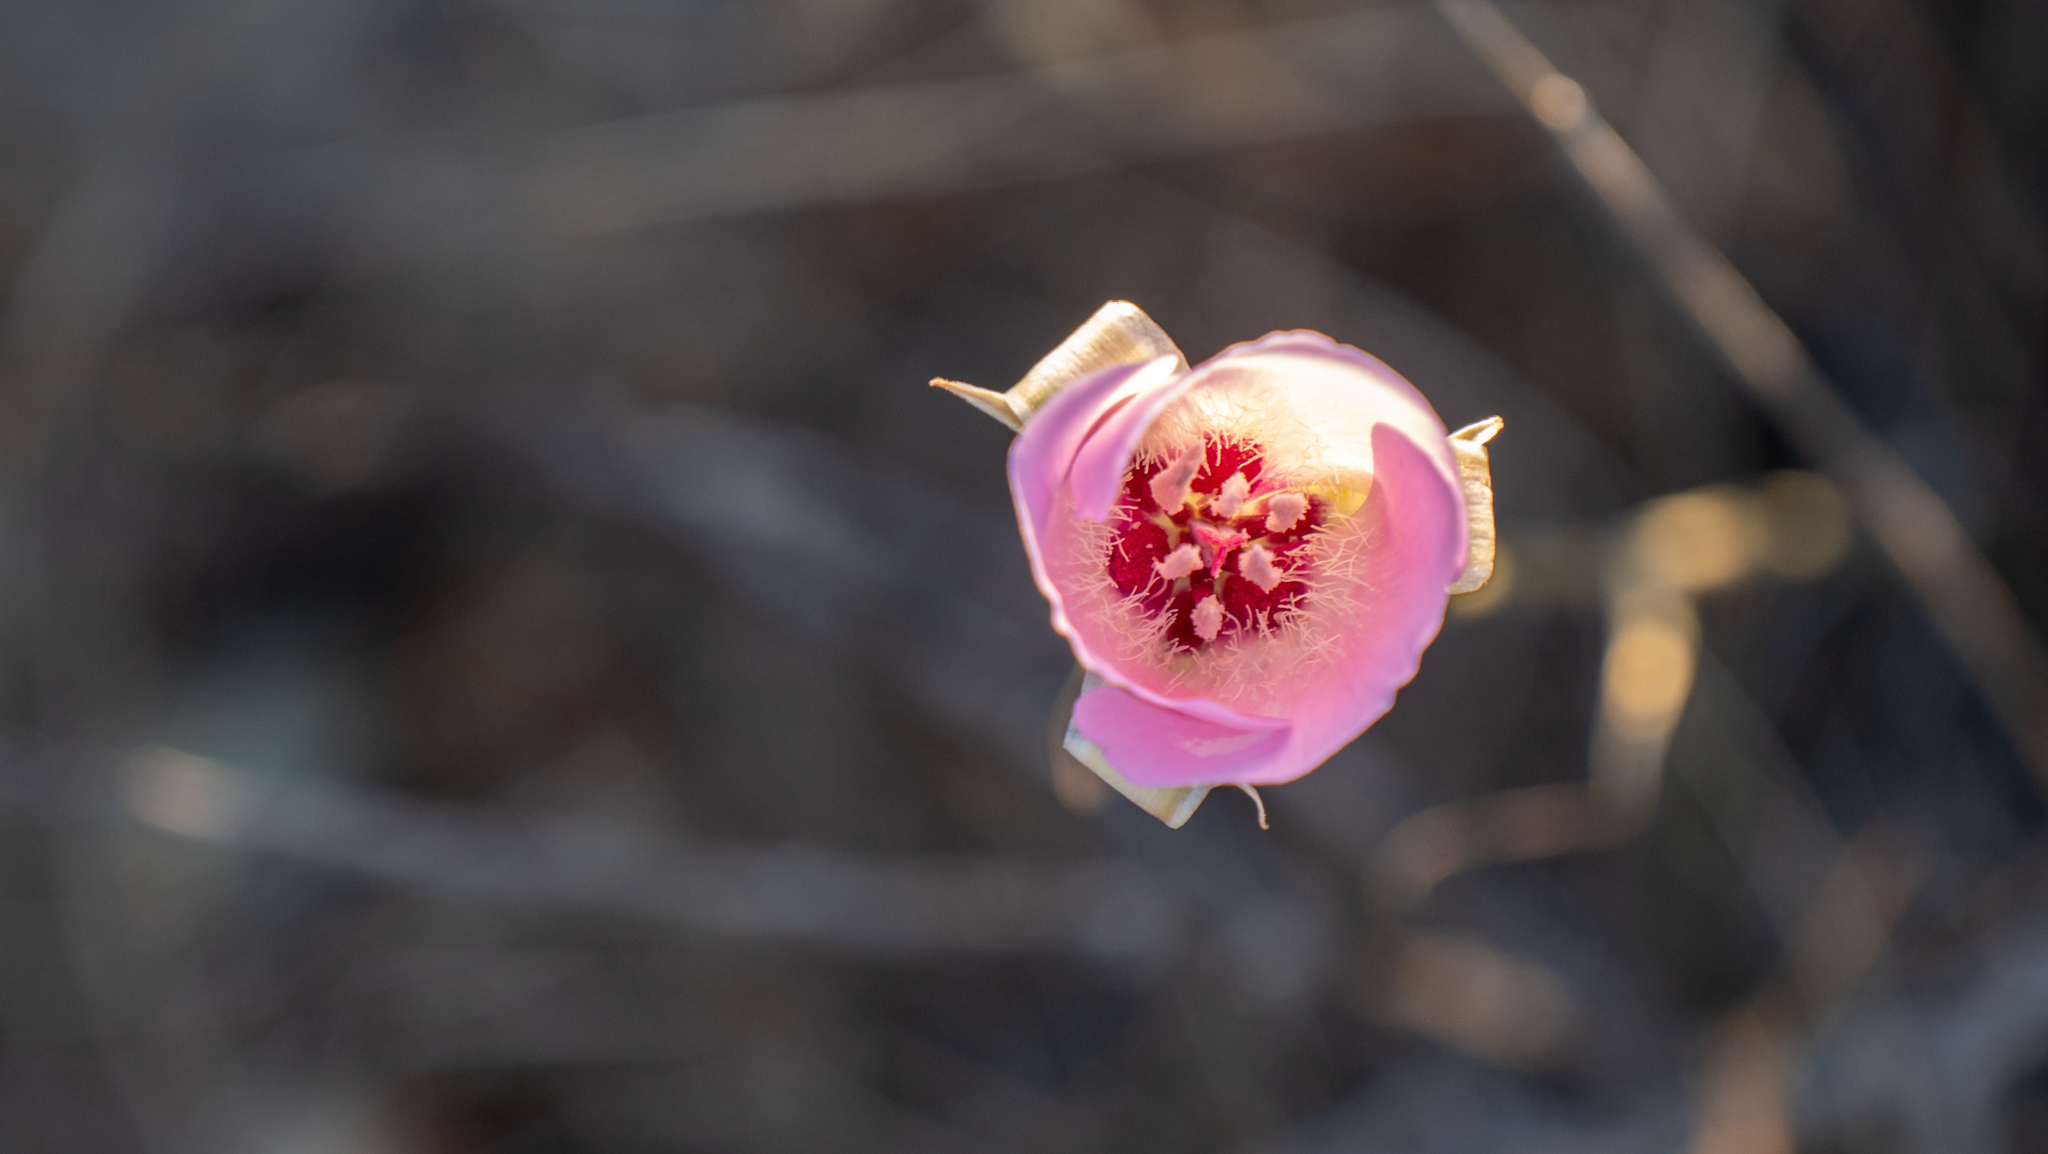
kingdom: Plantae
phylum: Tracheophyta
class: Liliopsida
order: Liliales
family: Liliaceae
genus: Calochortus
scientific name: Calochortus splendens
